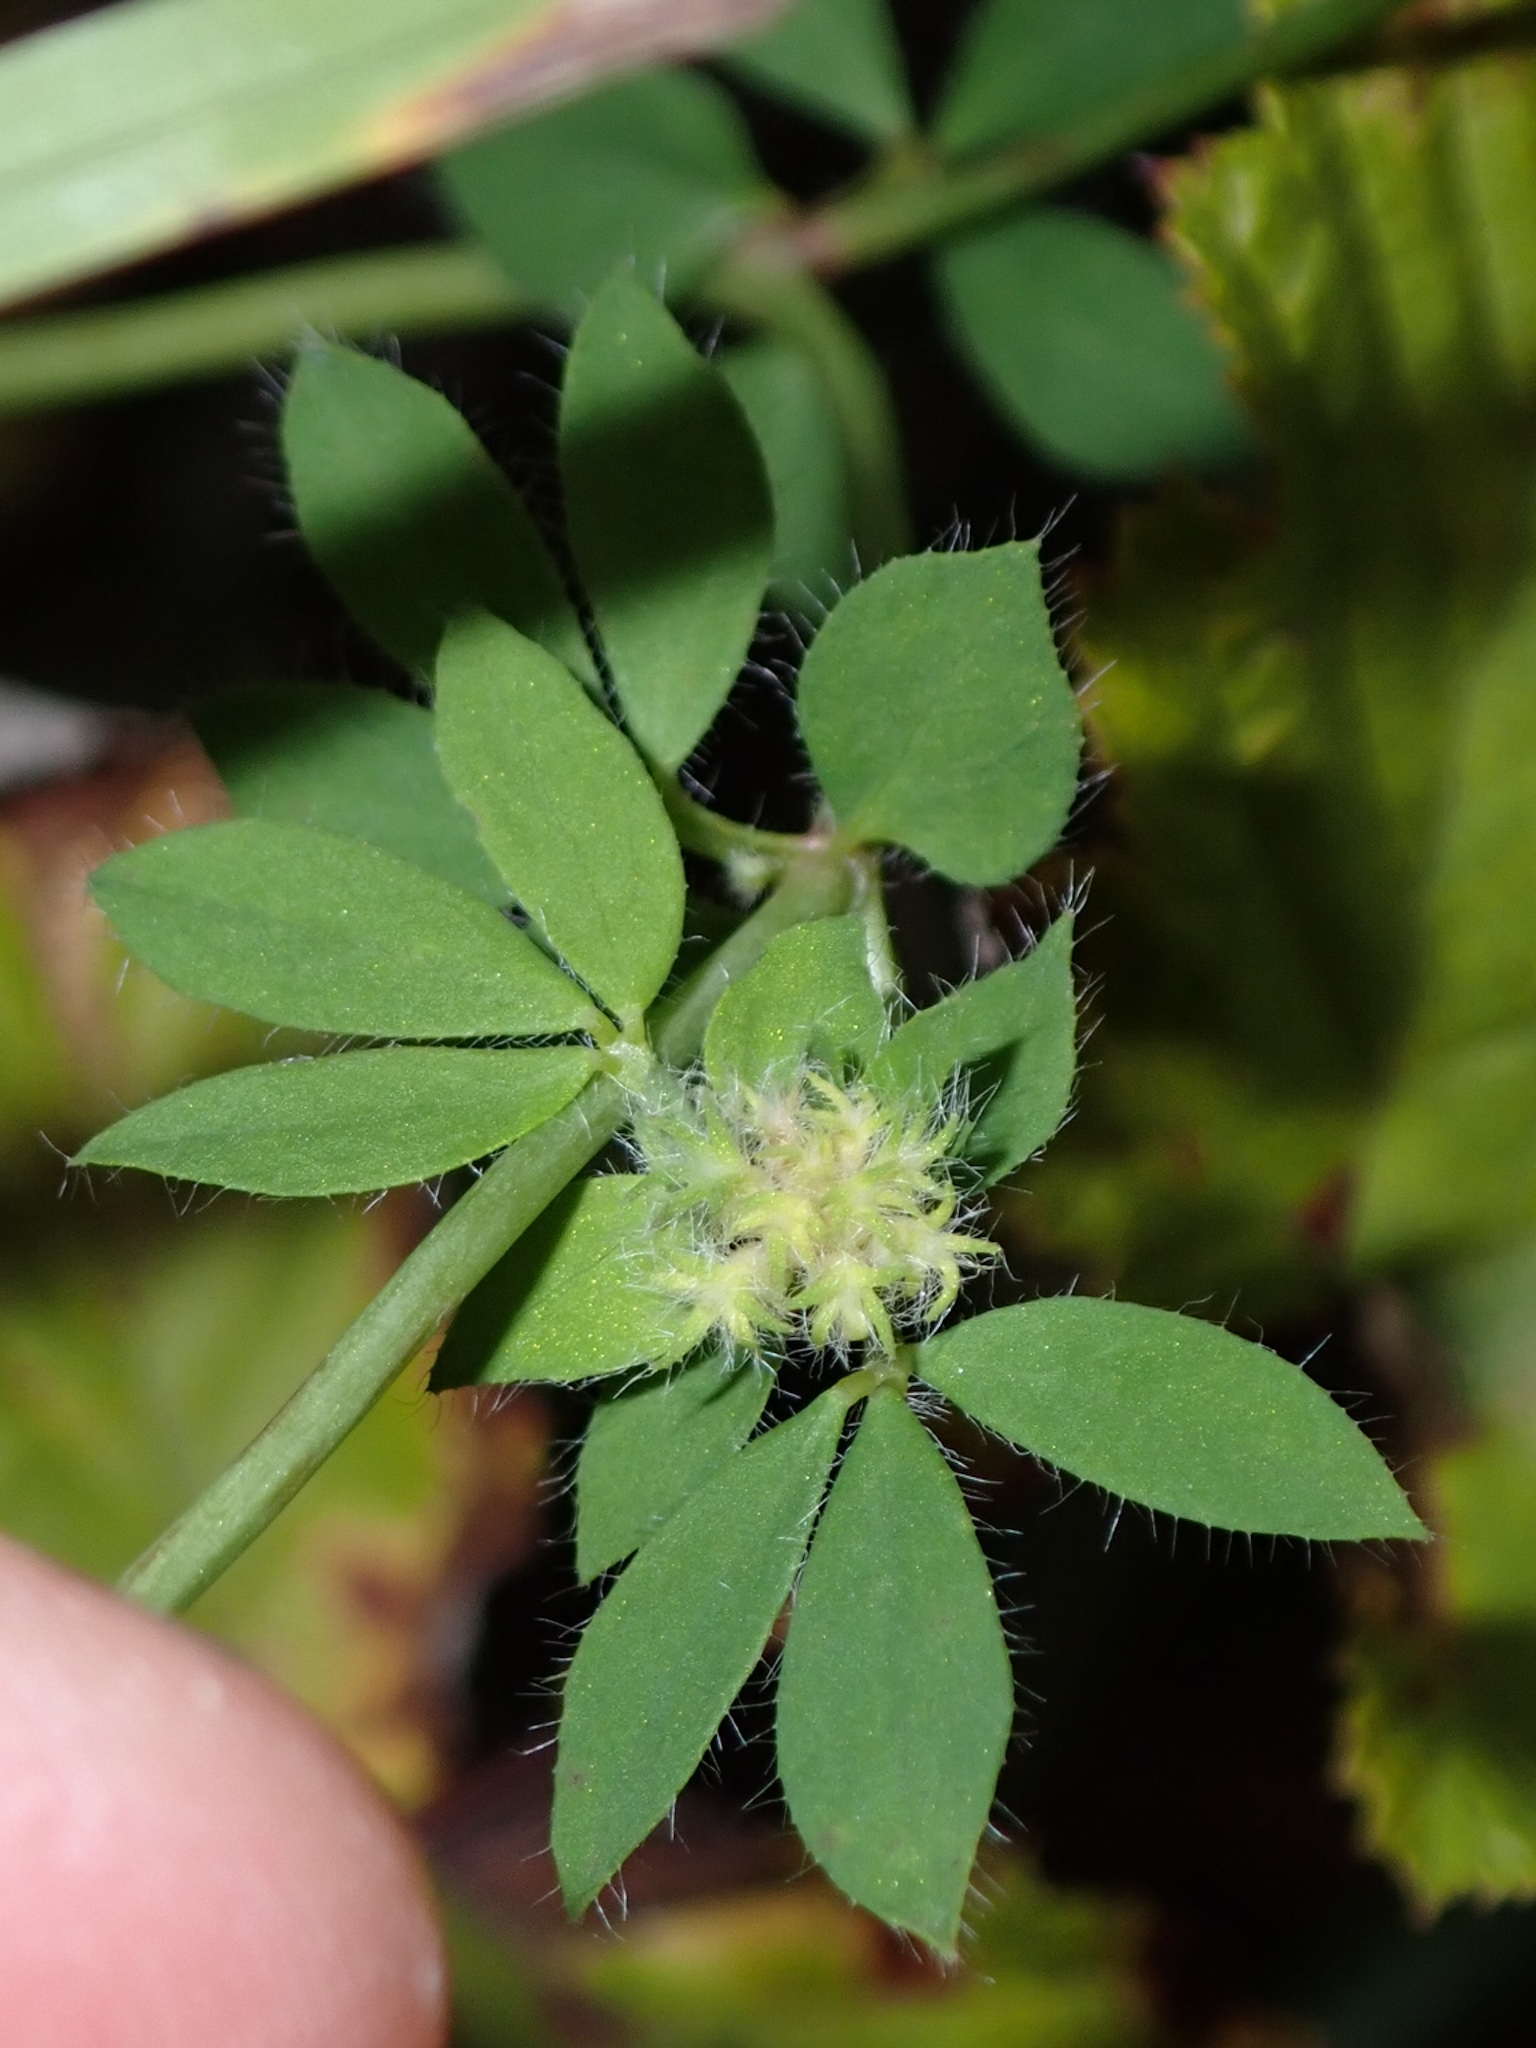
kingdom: Plantae
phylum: Tracheophyta
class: Magnoliopsida
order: Fabales
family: Fabaceae
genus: Lotus
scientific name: Lotus pedunculatus
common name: Greater birdsfoot-trefoil
